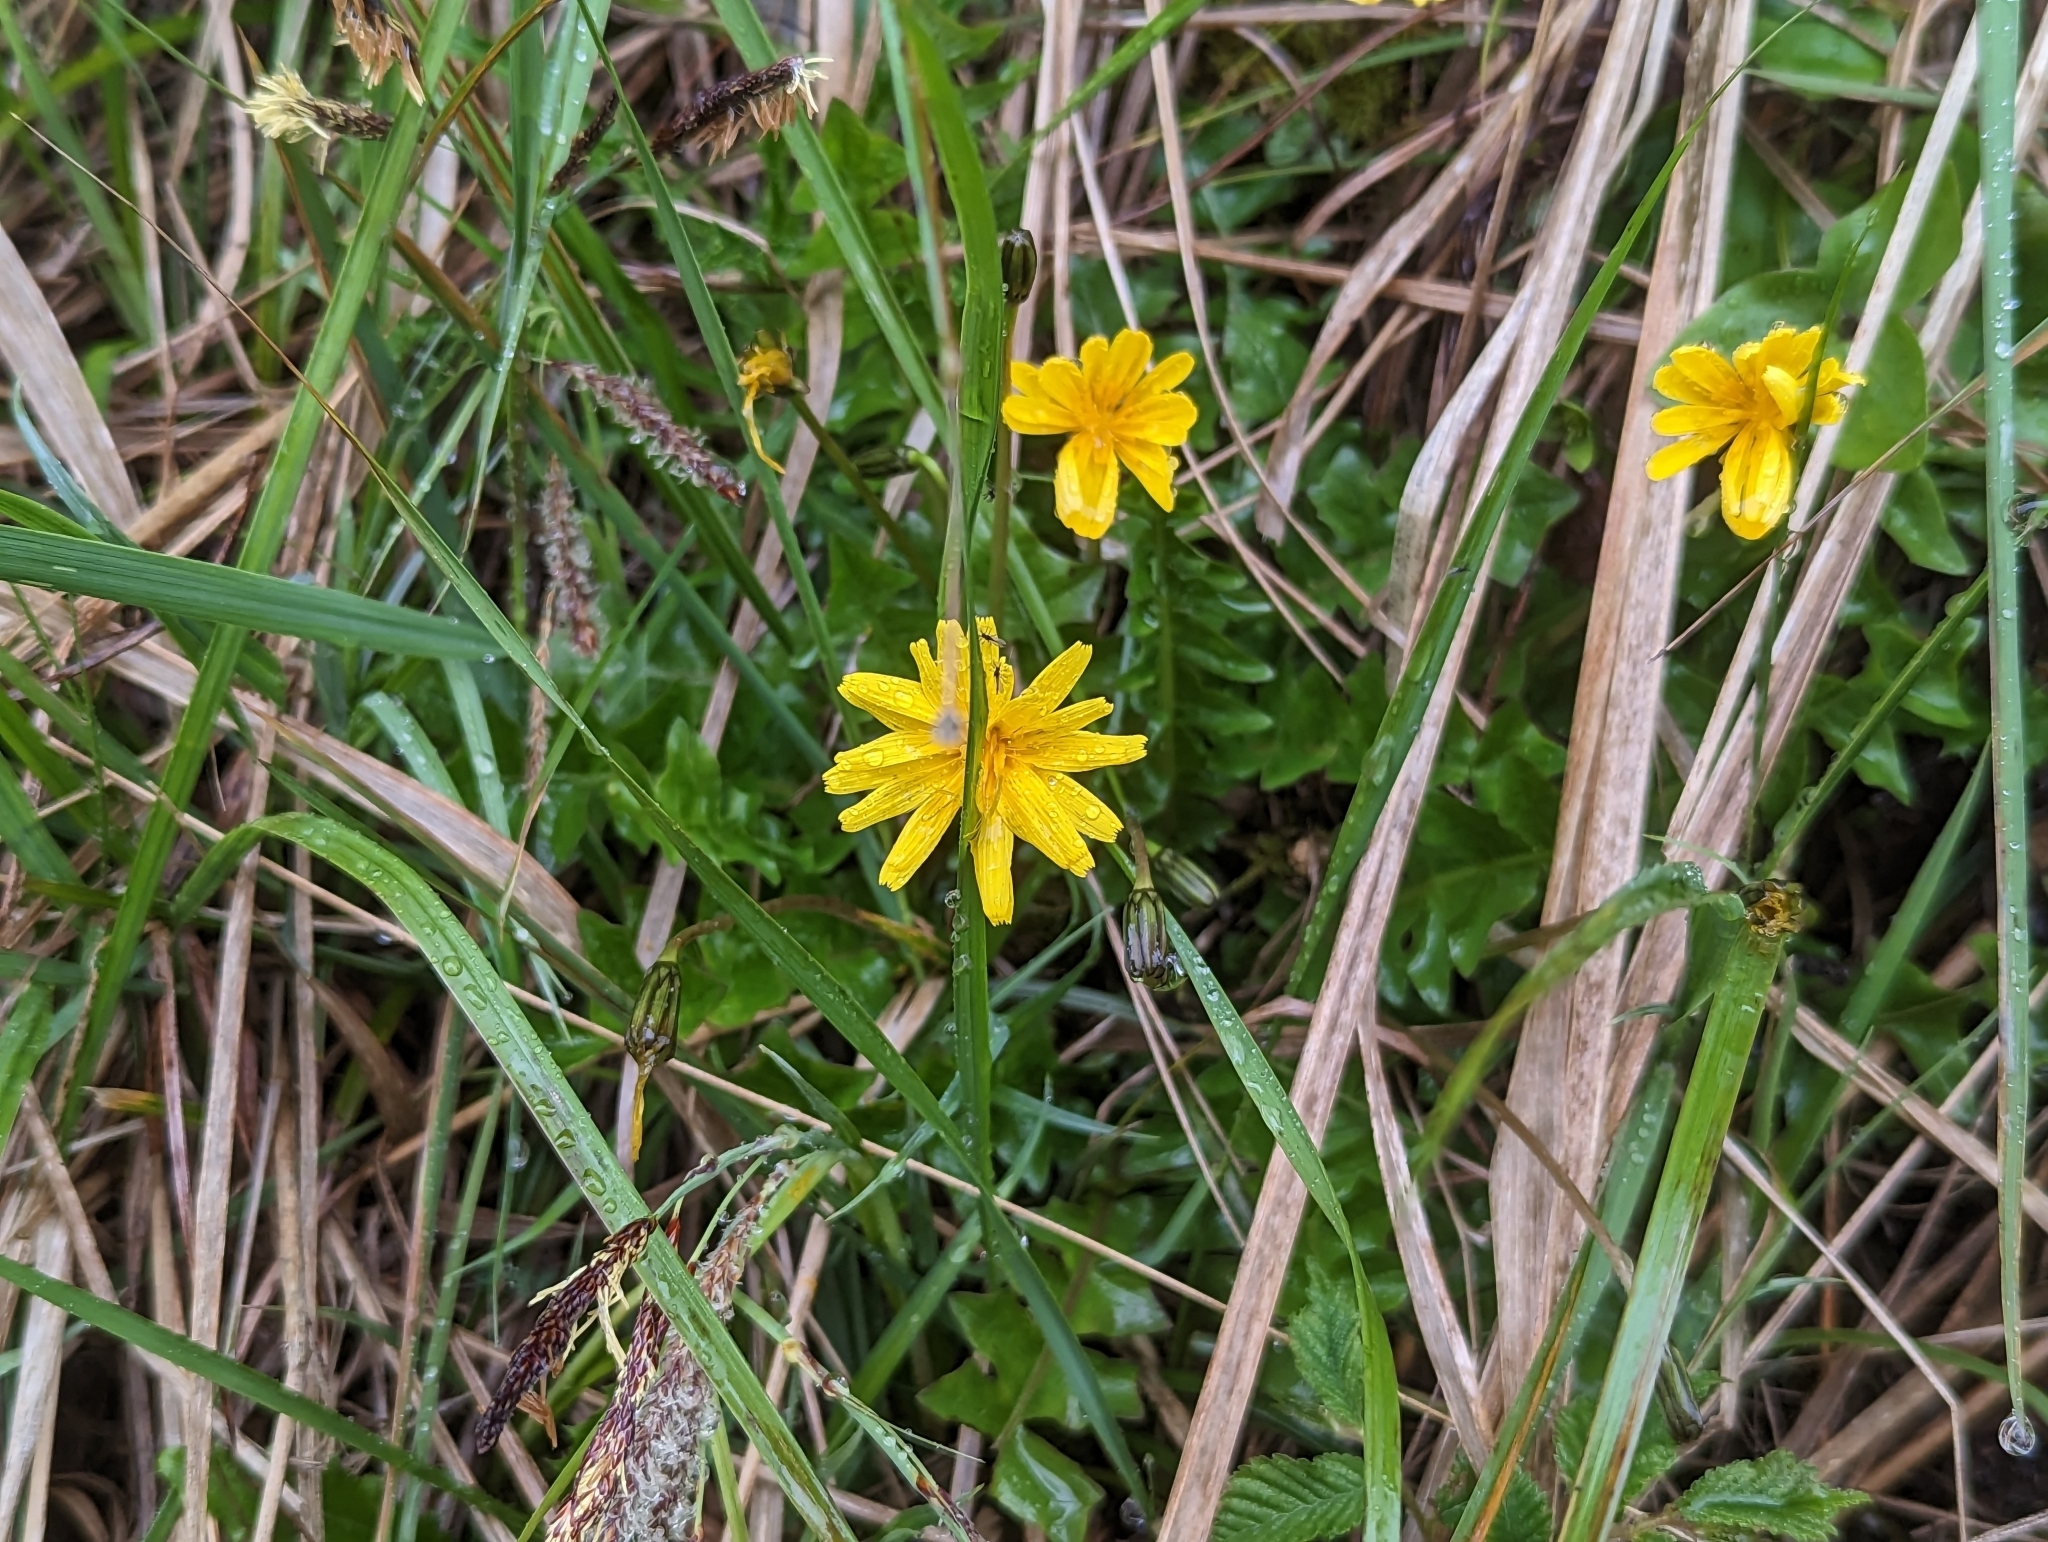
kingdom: Plantae
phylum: Tracheophyta
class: Magnoliopsida
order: Asterales
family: Asteraceae
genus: Aposeris
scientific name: Aposeris foetida
